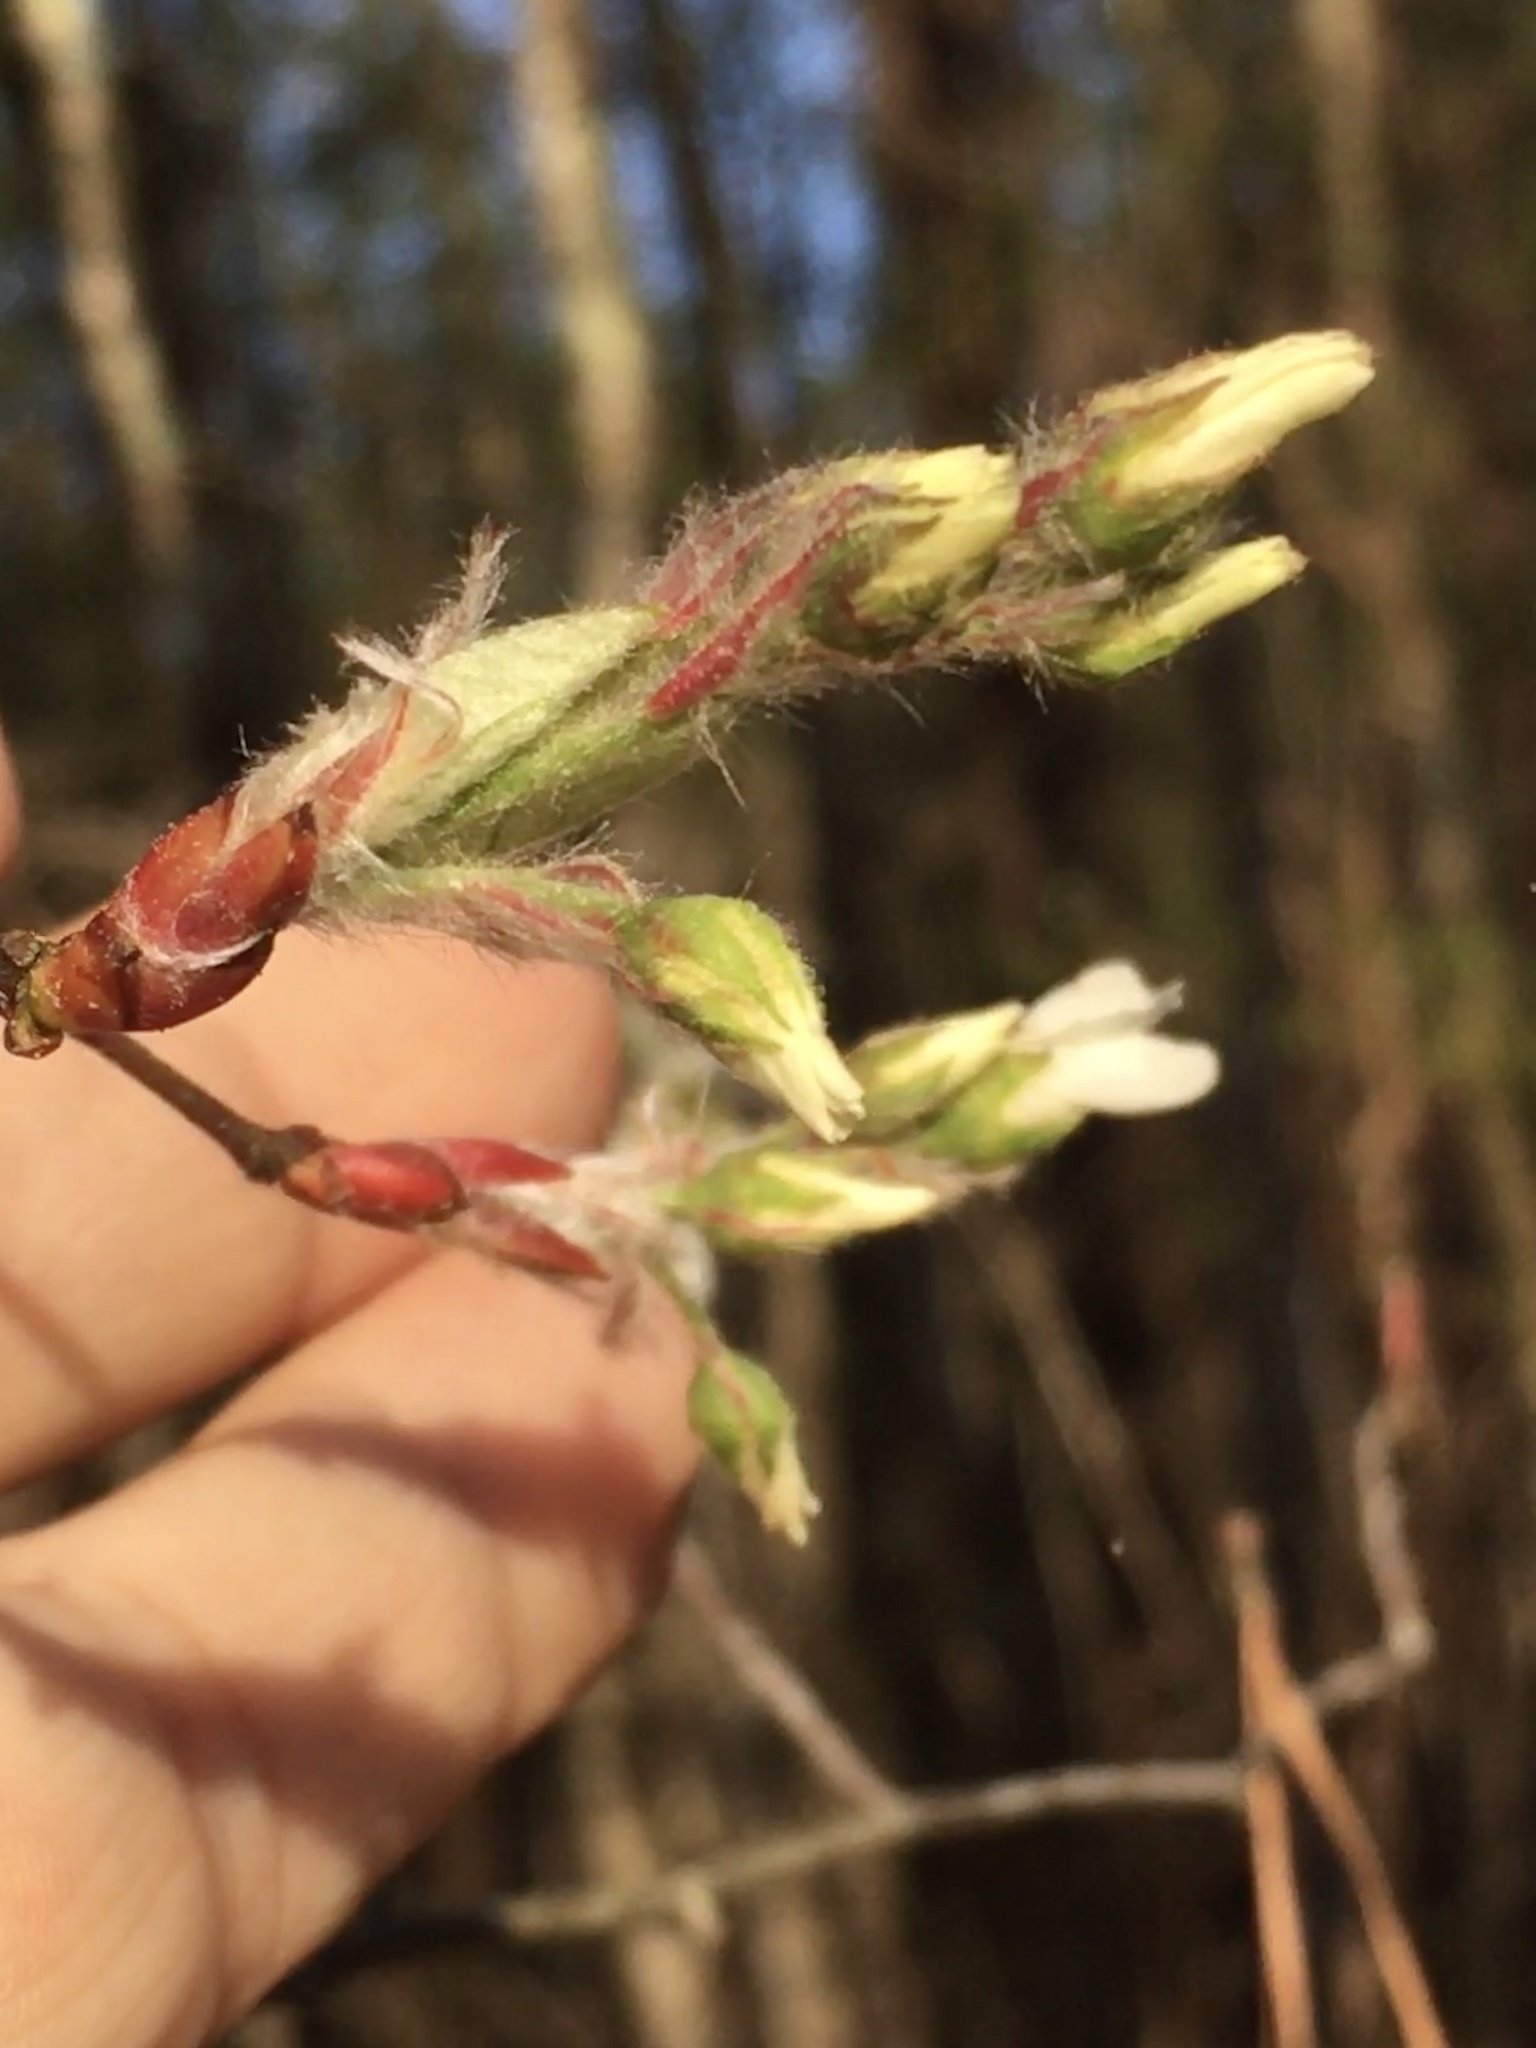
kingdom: Plantae
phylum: Tracheophyta
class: Magnoliopsida
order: Rosales
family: Rosaceae
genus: Amelanchier
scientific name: Amelanchier arborea
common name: Downy serviceberry
